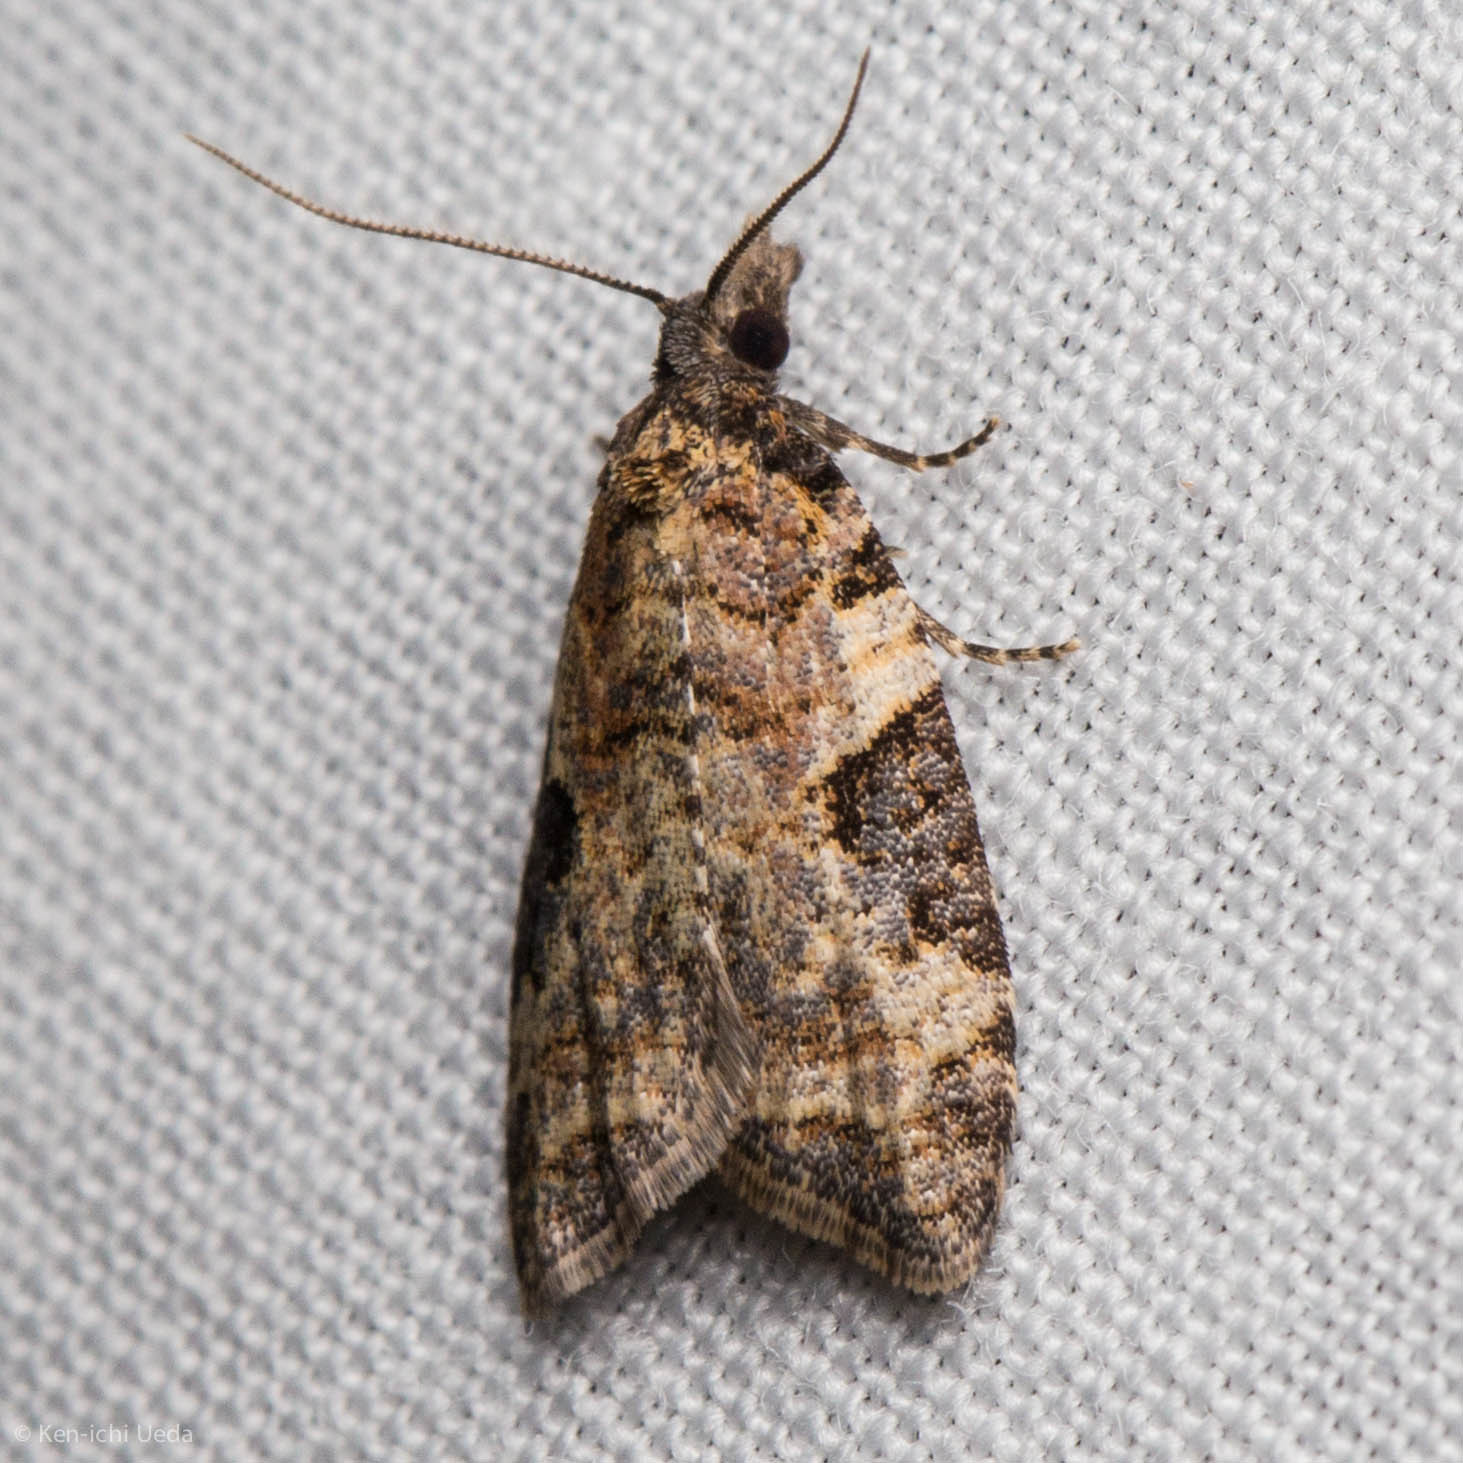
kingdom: Animalia
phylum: Arthropoda
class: Insecta
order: Lepidoptera
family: Tortricidae
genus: Anopina
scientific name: Anopina triangulana
